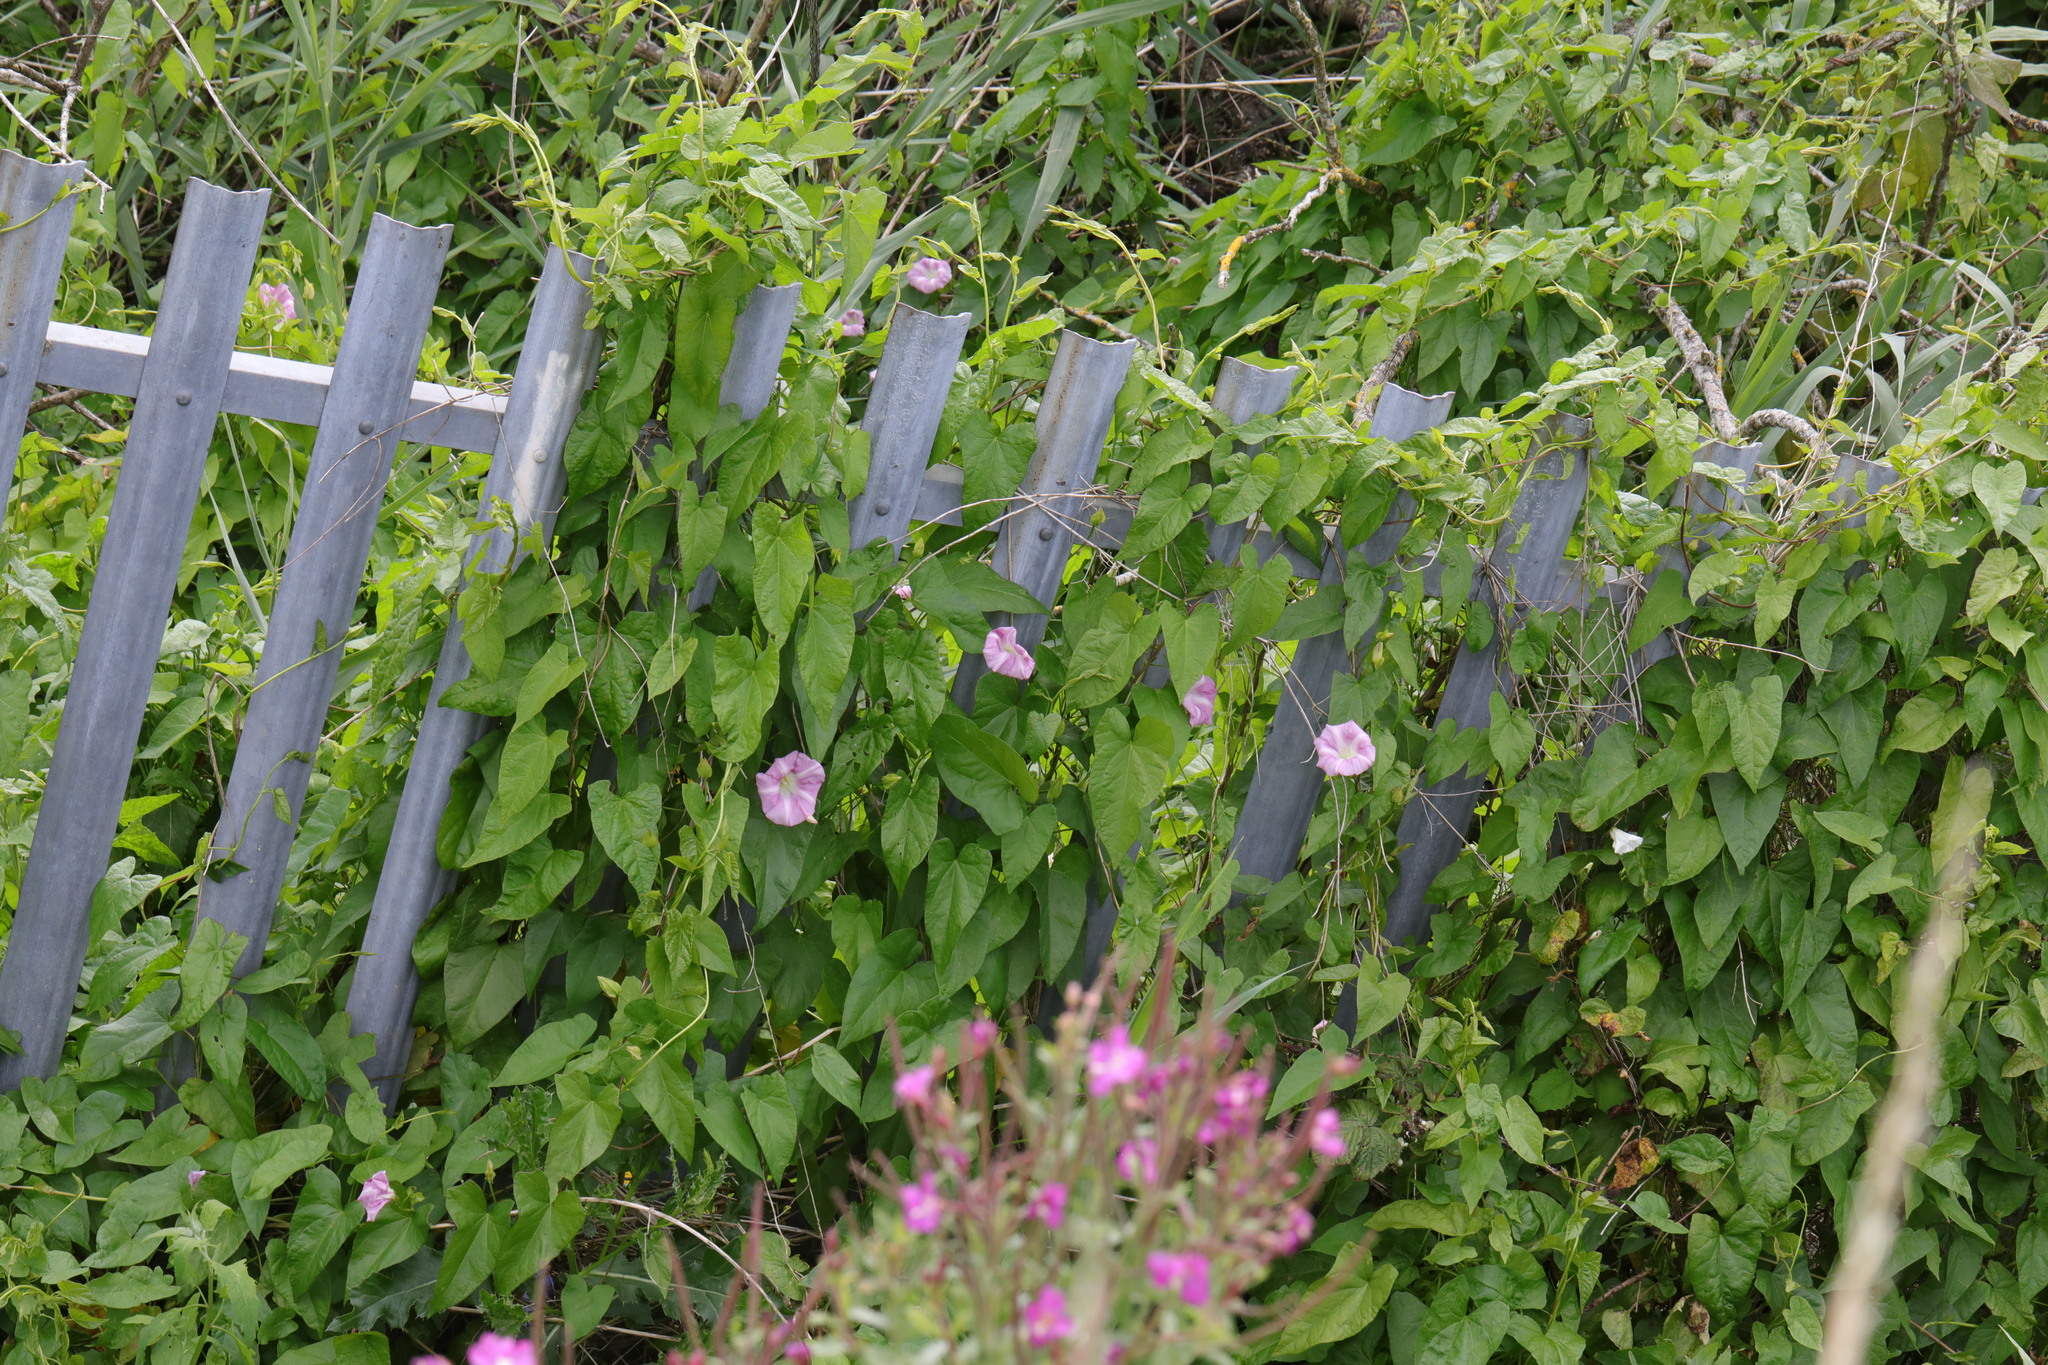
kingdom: Plantae
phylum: Tracheophyta
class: Magnoliopsida
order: Solanales
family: Convolvulaceae
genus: Calystegia
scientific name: Calystegia sepium
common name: Hedge bindweed
